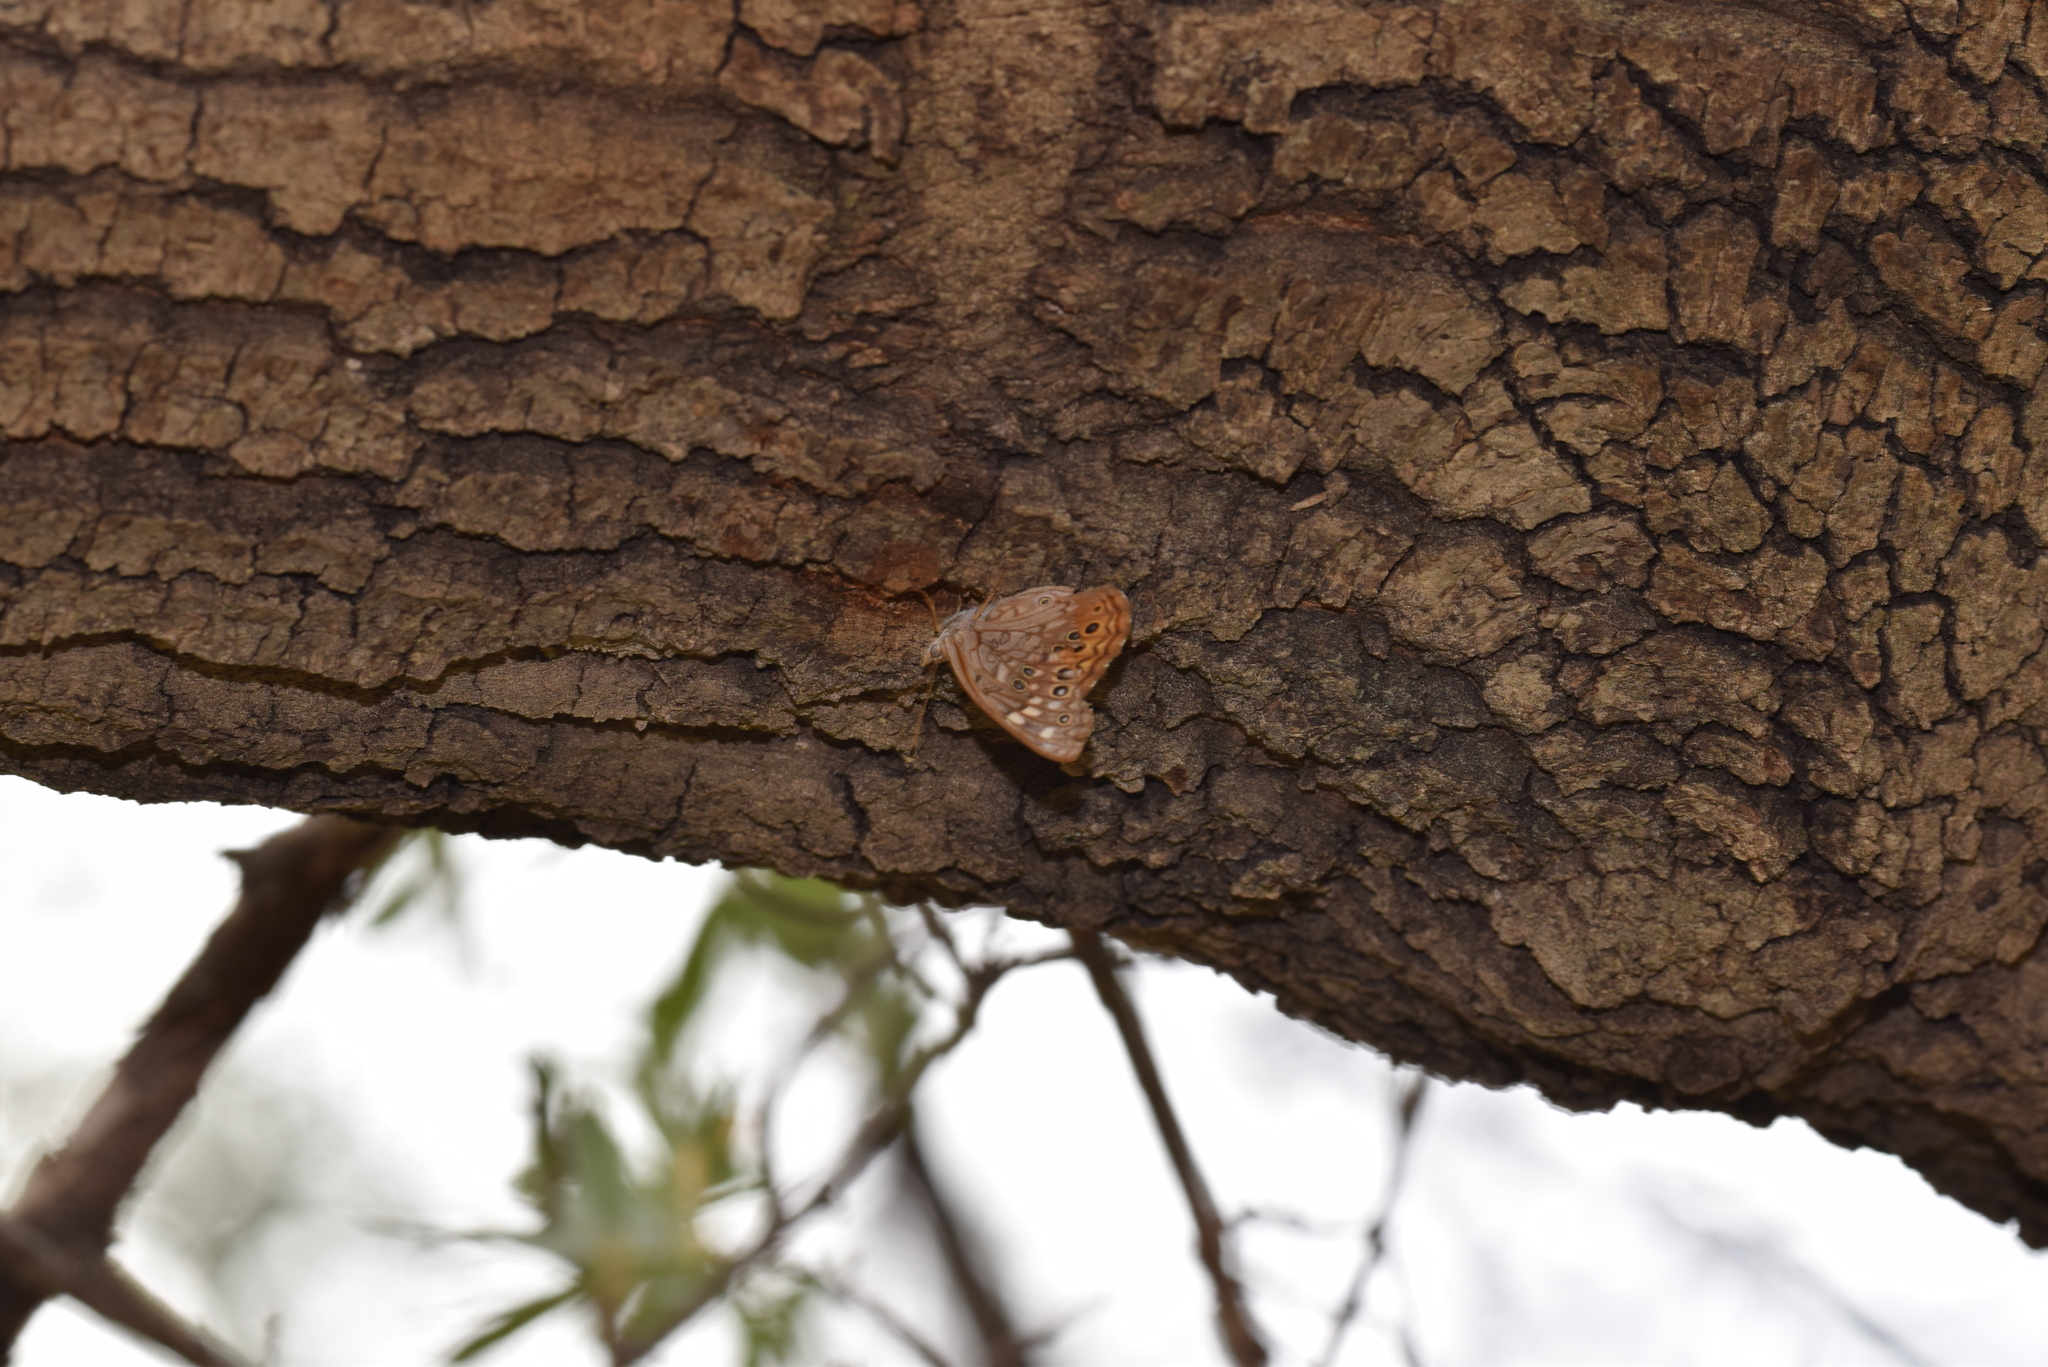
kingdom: Animalia
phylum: Arthropoda
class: Insecta
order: Lepidoptera
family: Nymphalidae
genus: Asterocampa
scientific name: Asterocampa leilia
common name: Empress leilia
